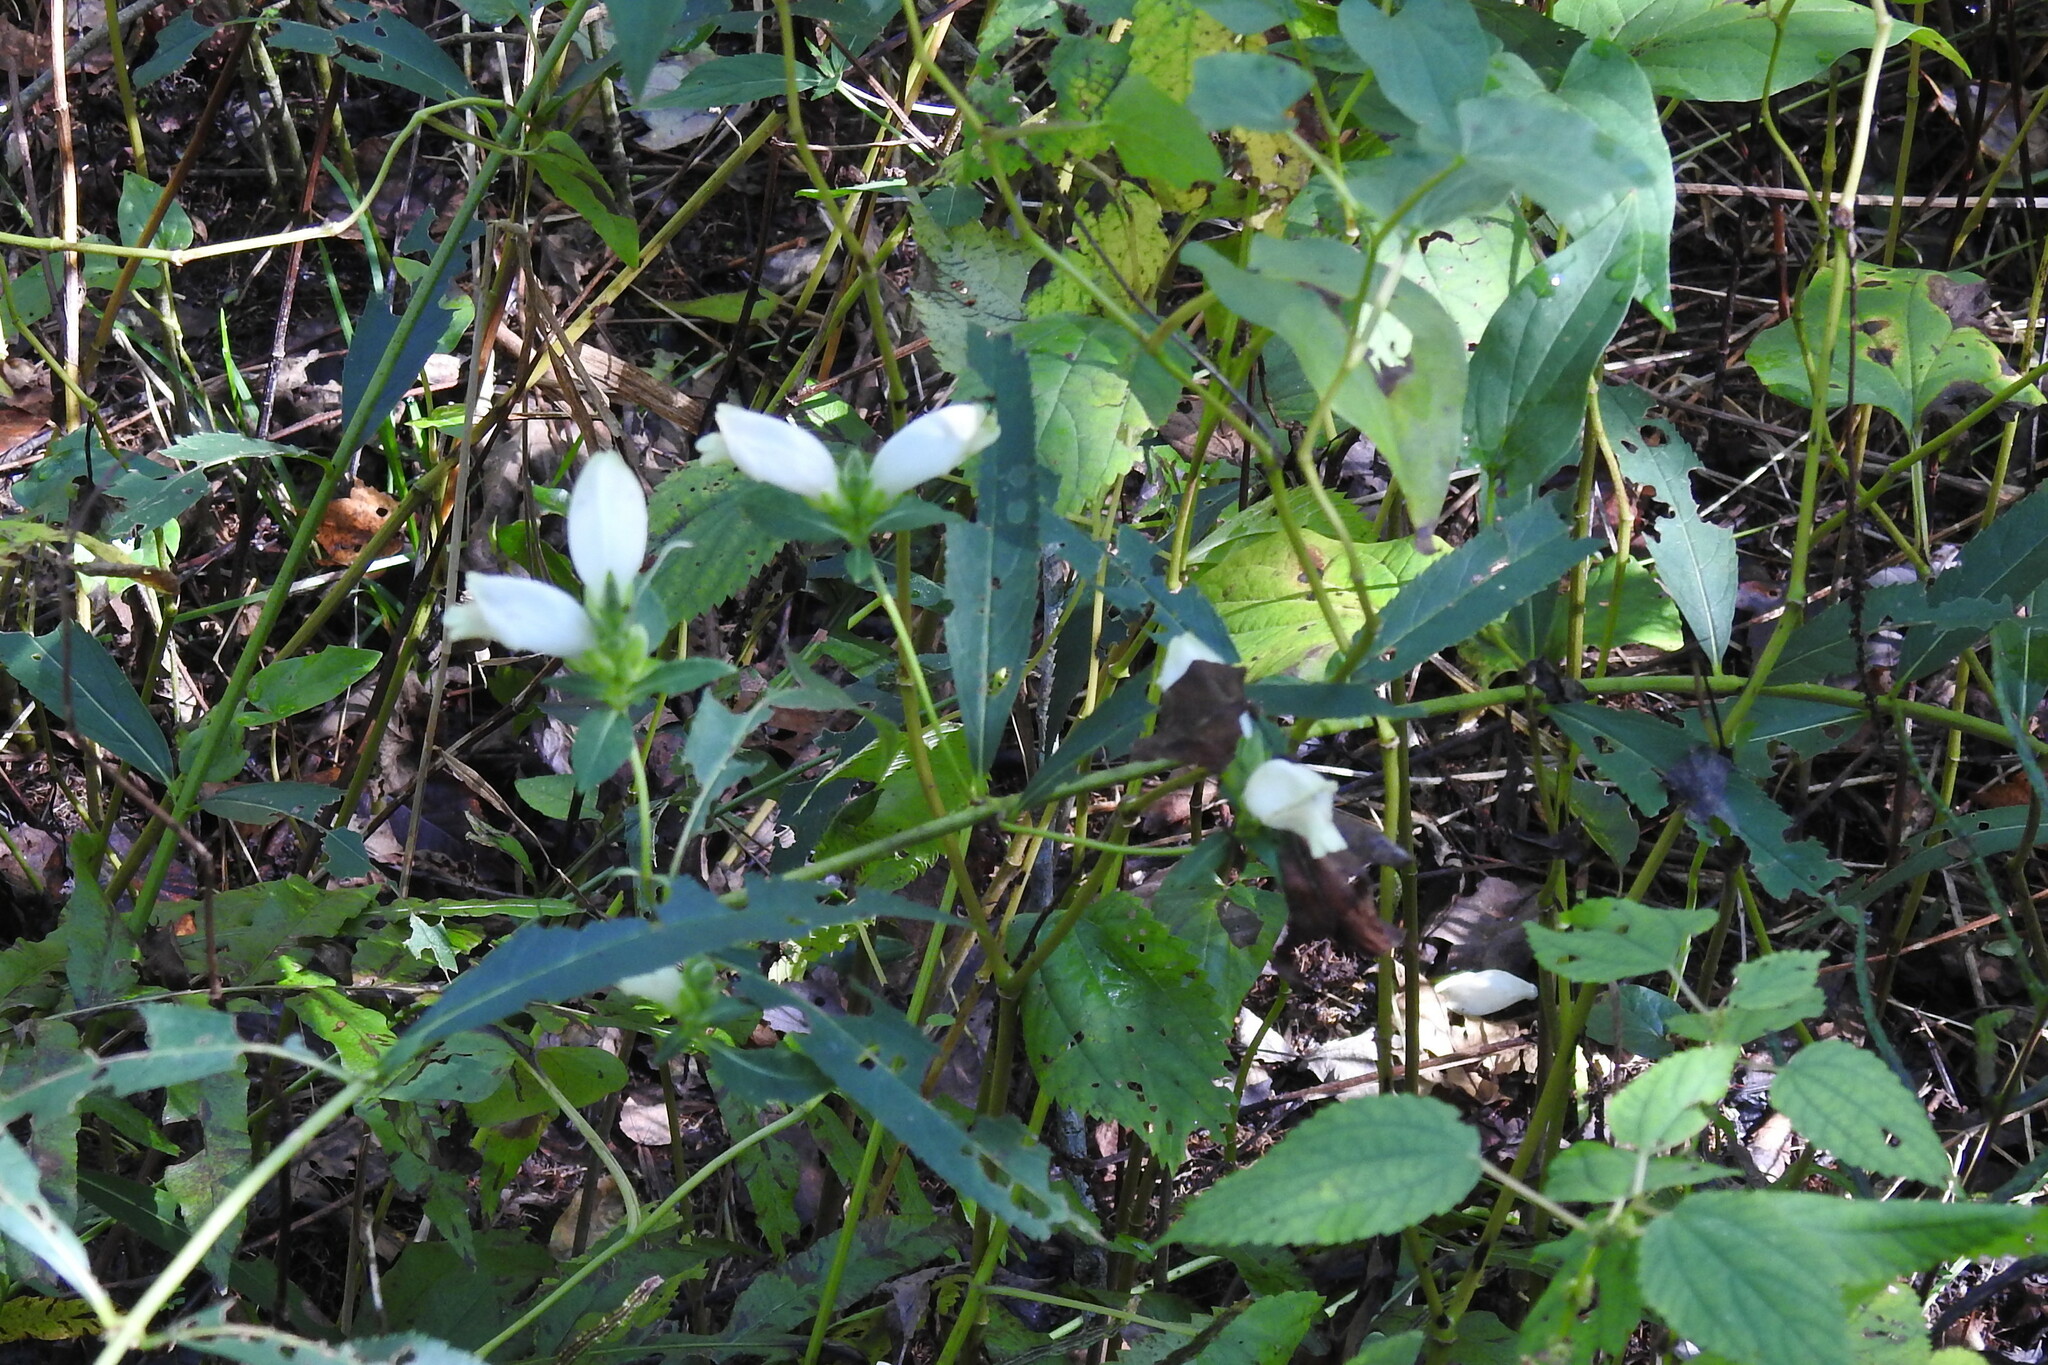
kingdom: Plantae
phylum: Tracheophyta
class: Magnoliopsida
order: Lamiales
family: Plantaginaceae
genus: Chelone
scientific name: Chelone glabra
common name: Snakehead
